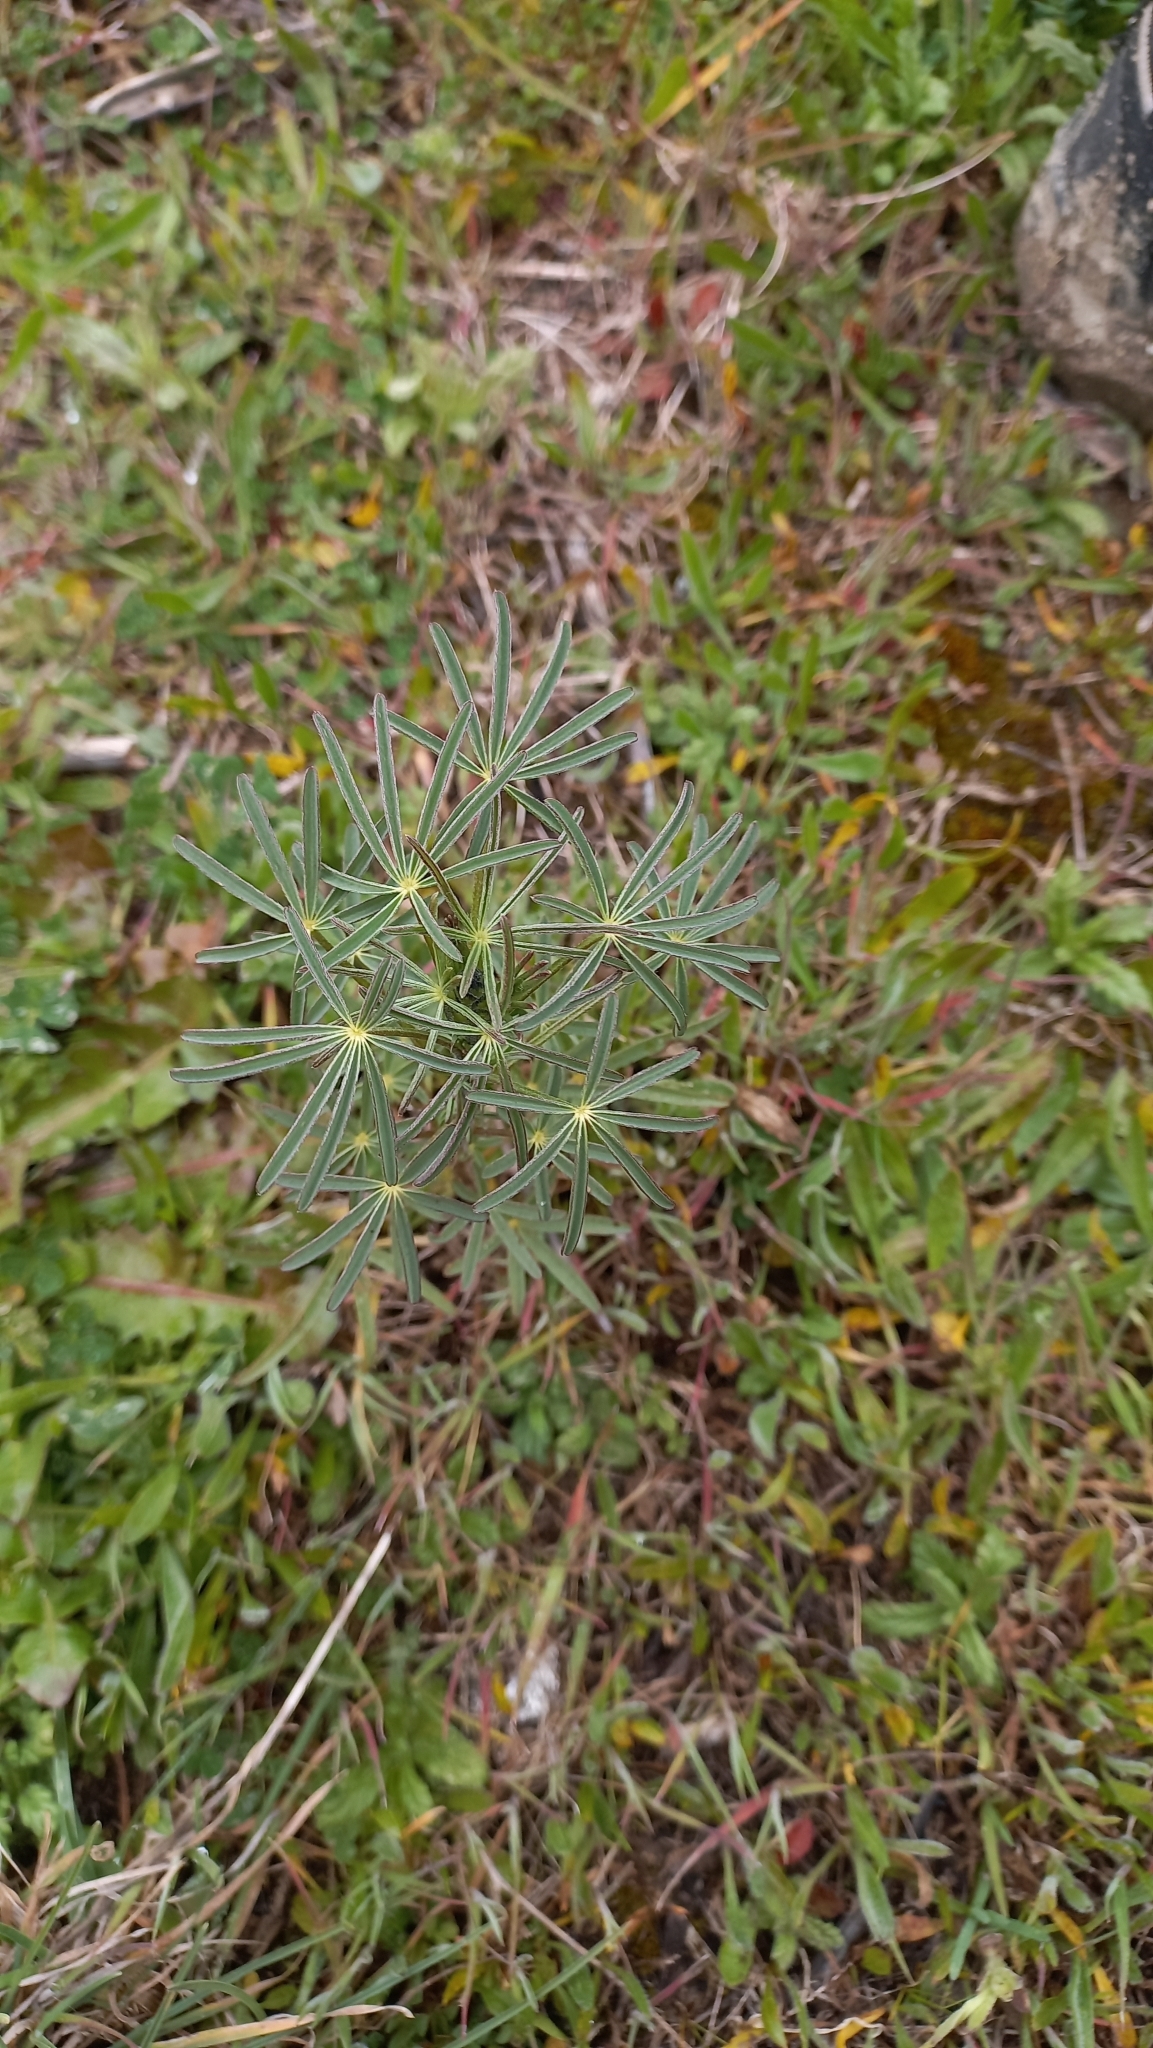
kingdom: Plantae
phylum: Tracheophyta
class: Magnoliopsida
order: Fabales
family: Fabaceae
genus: Lupinus
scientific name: Lupinus angustifolius
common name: Narrow-leaved lupin
